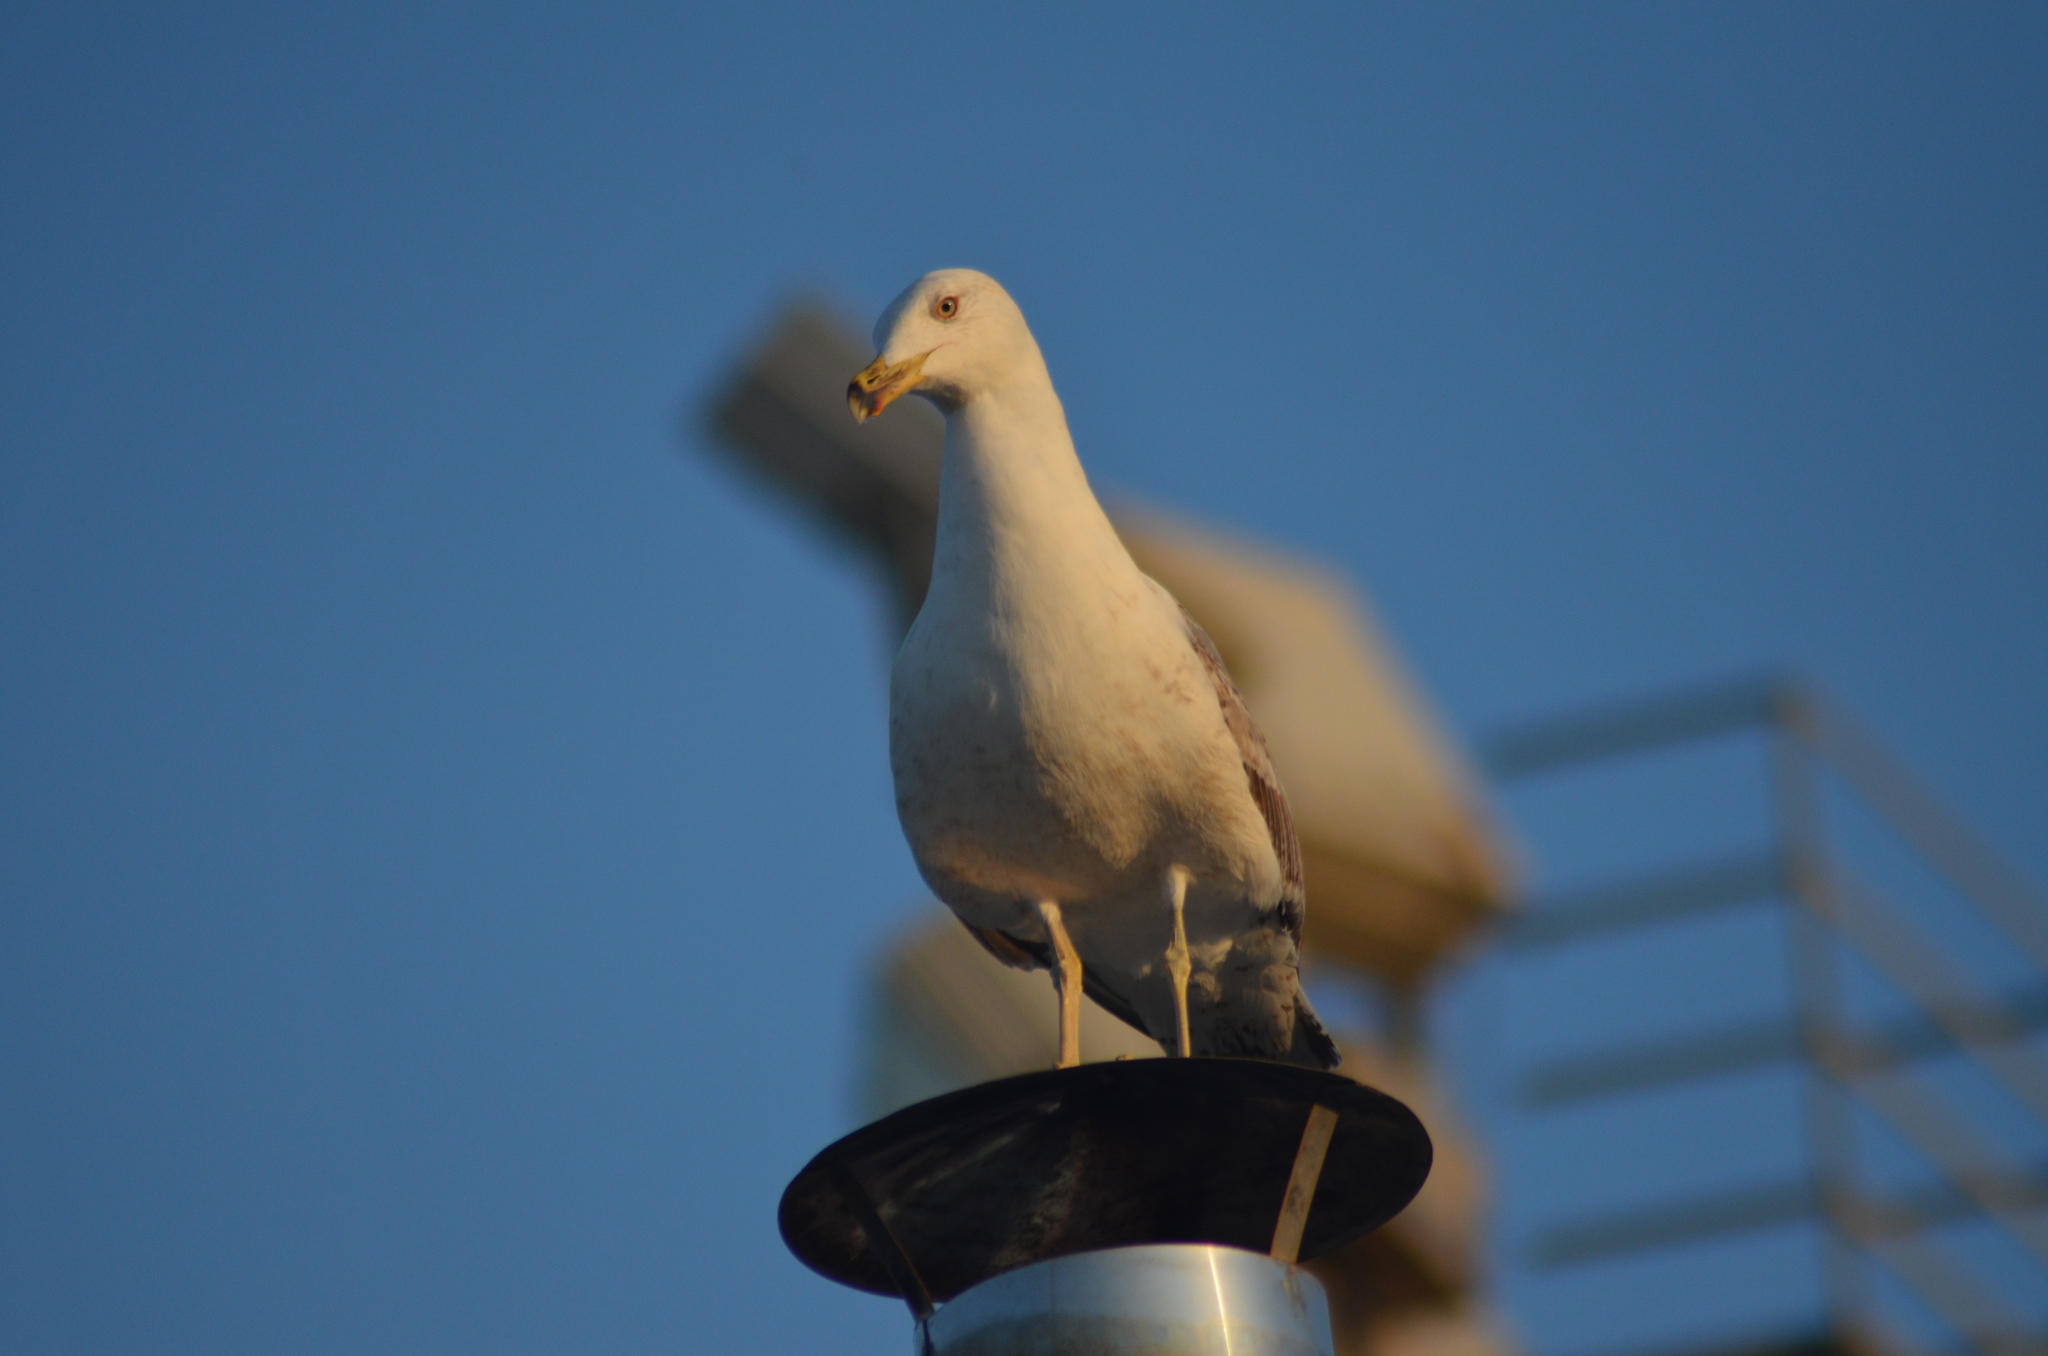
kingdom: Animalia
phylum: Chordata
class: Aves
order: Charadriiformes
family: Laridae
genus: Larus
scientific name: Larus michahellis
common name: Yellow-legged gull
